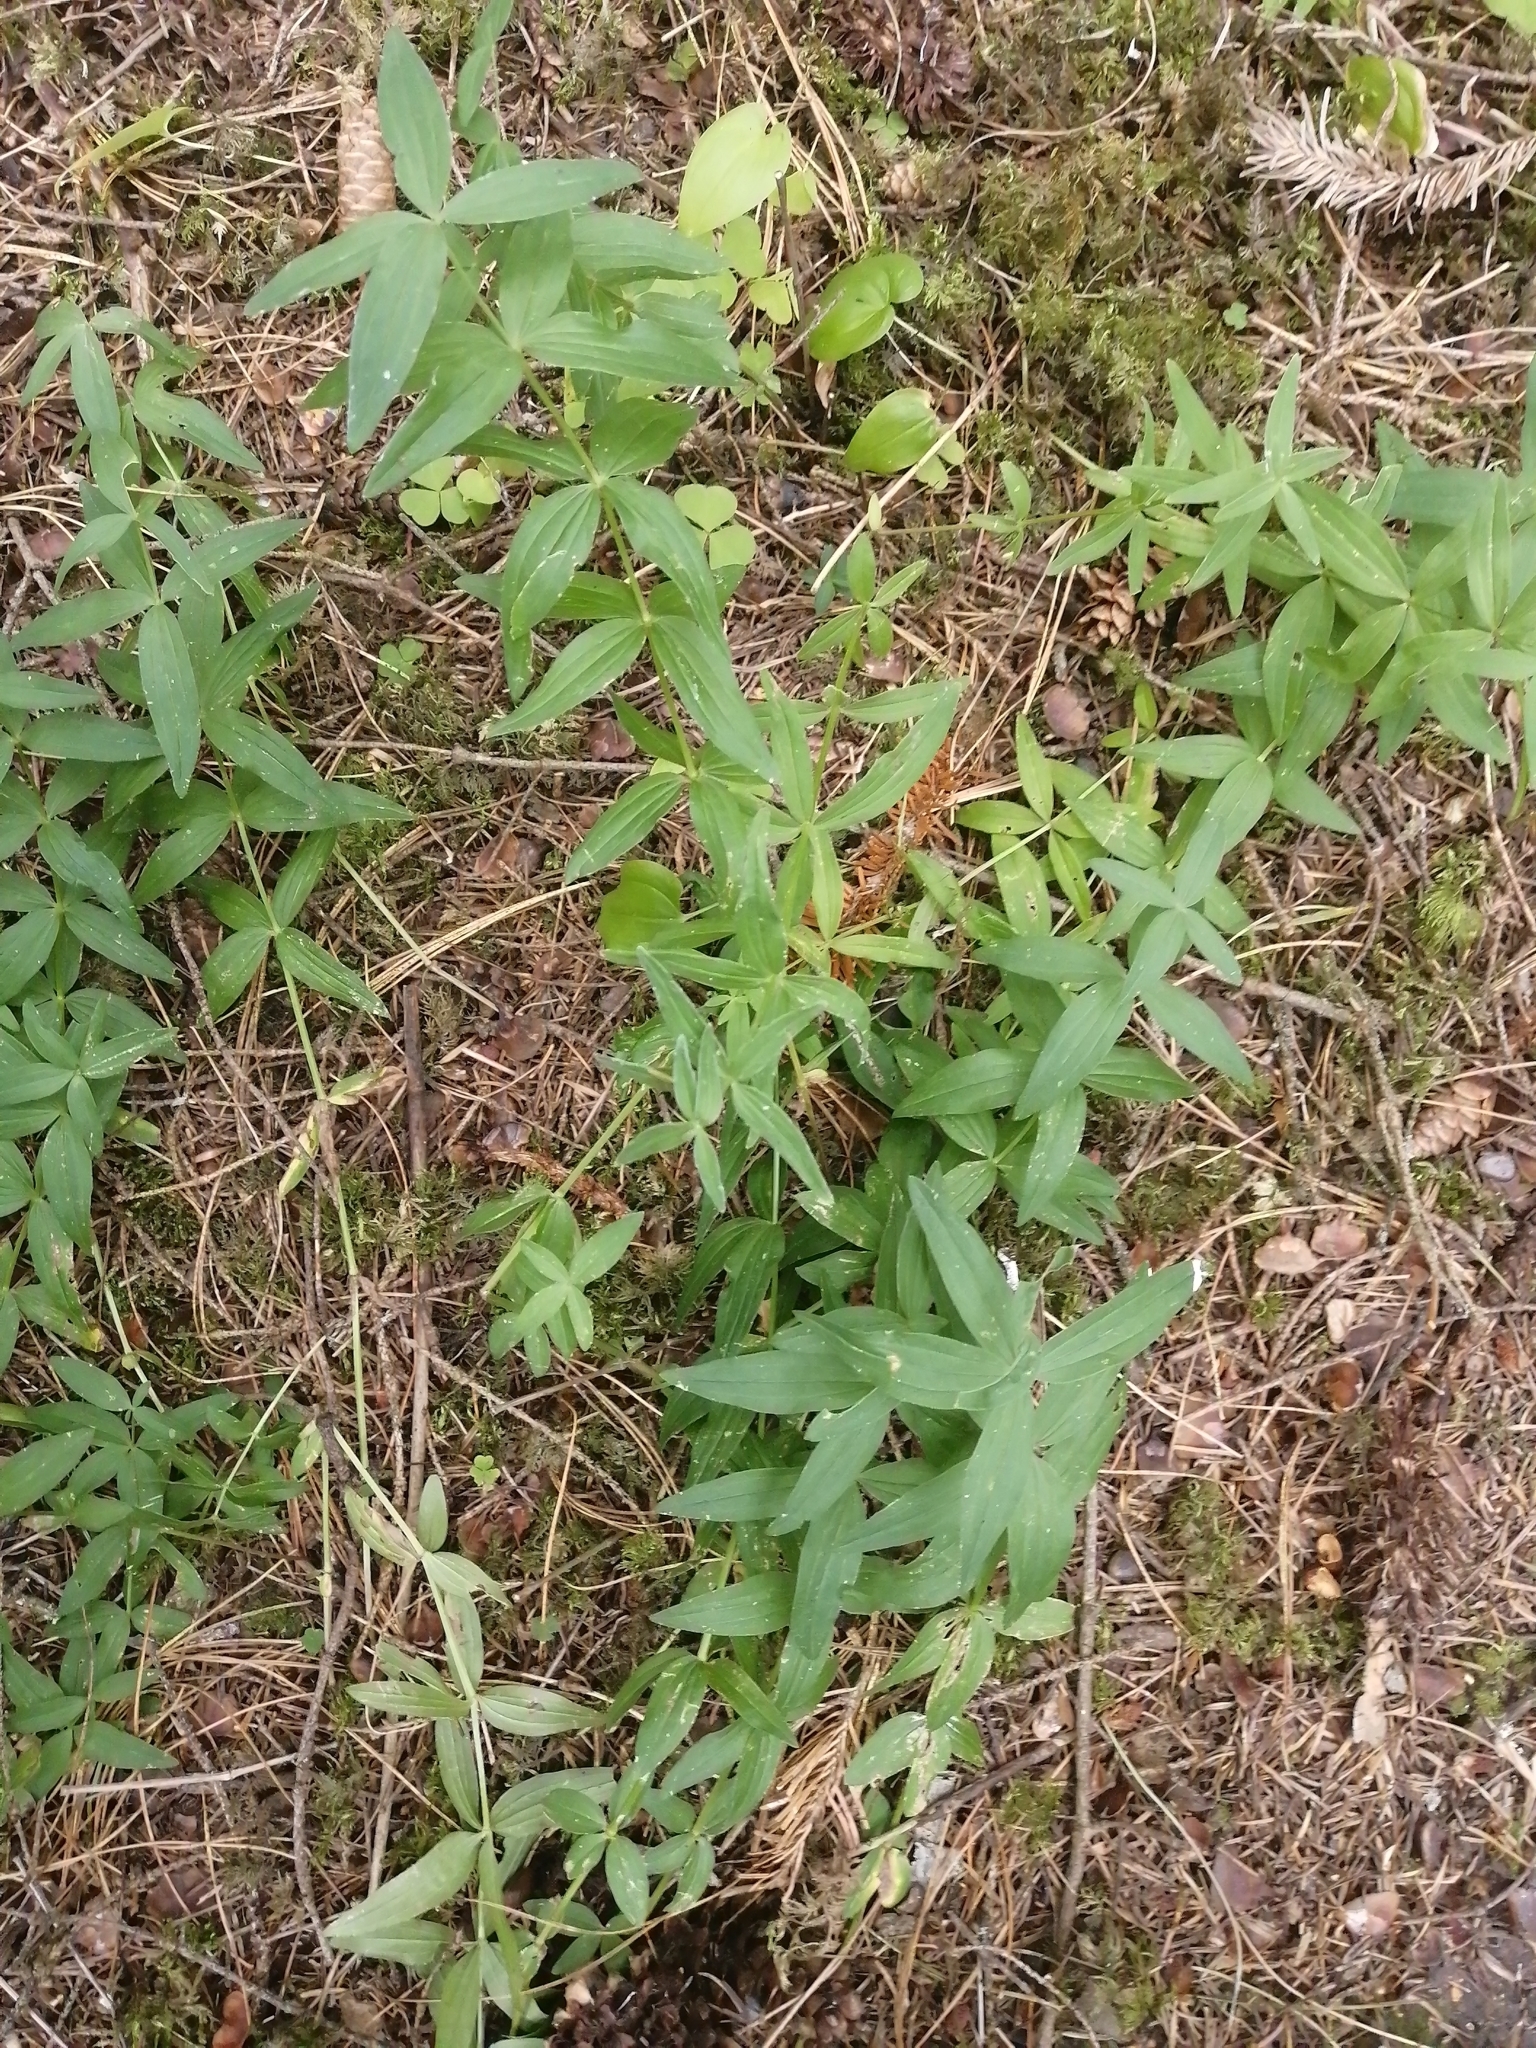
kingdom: Plantae
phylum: Tracheophyta
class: Magnoliopsida
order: Gentianales
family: Rubiaceae
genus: Galium
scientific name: Galium boreale
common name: Northern bedstraw
